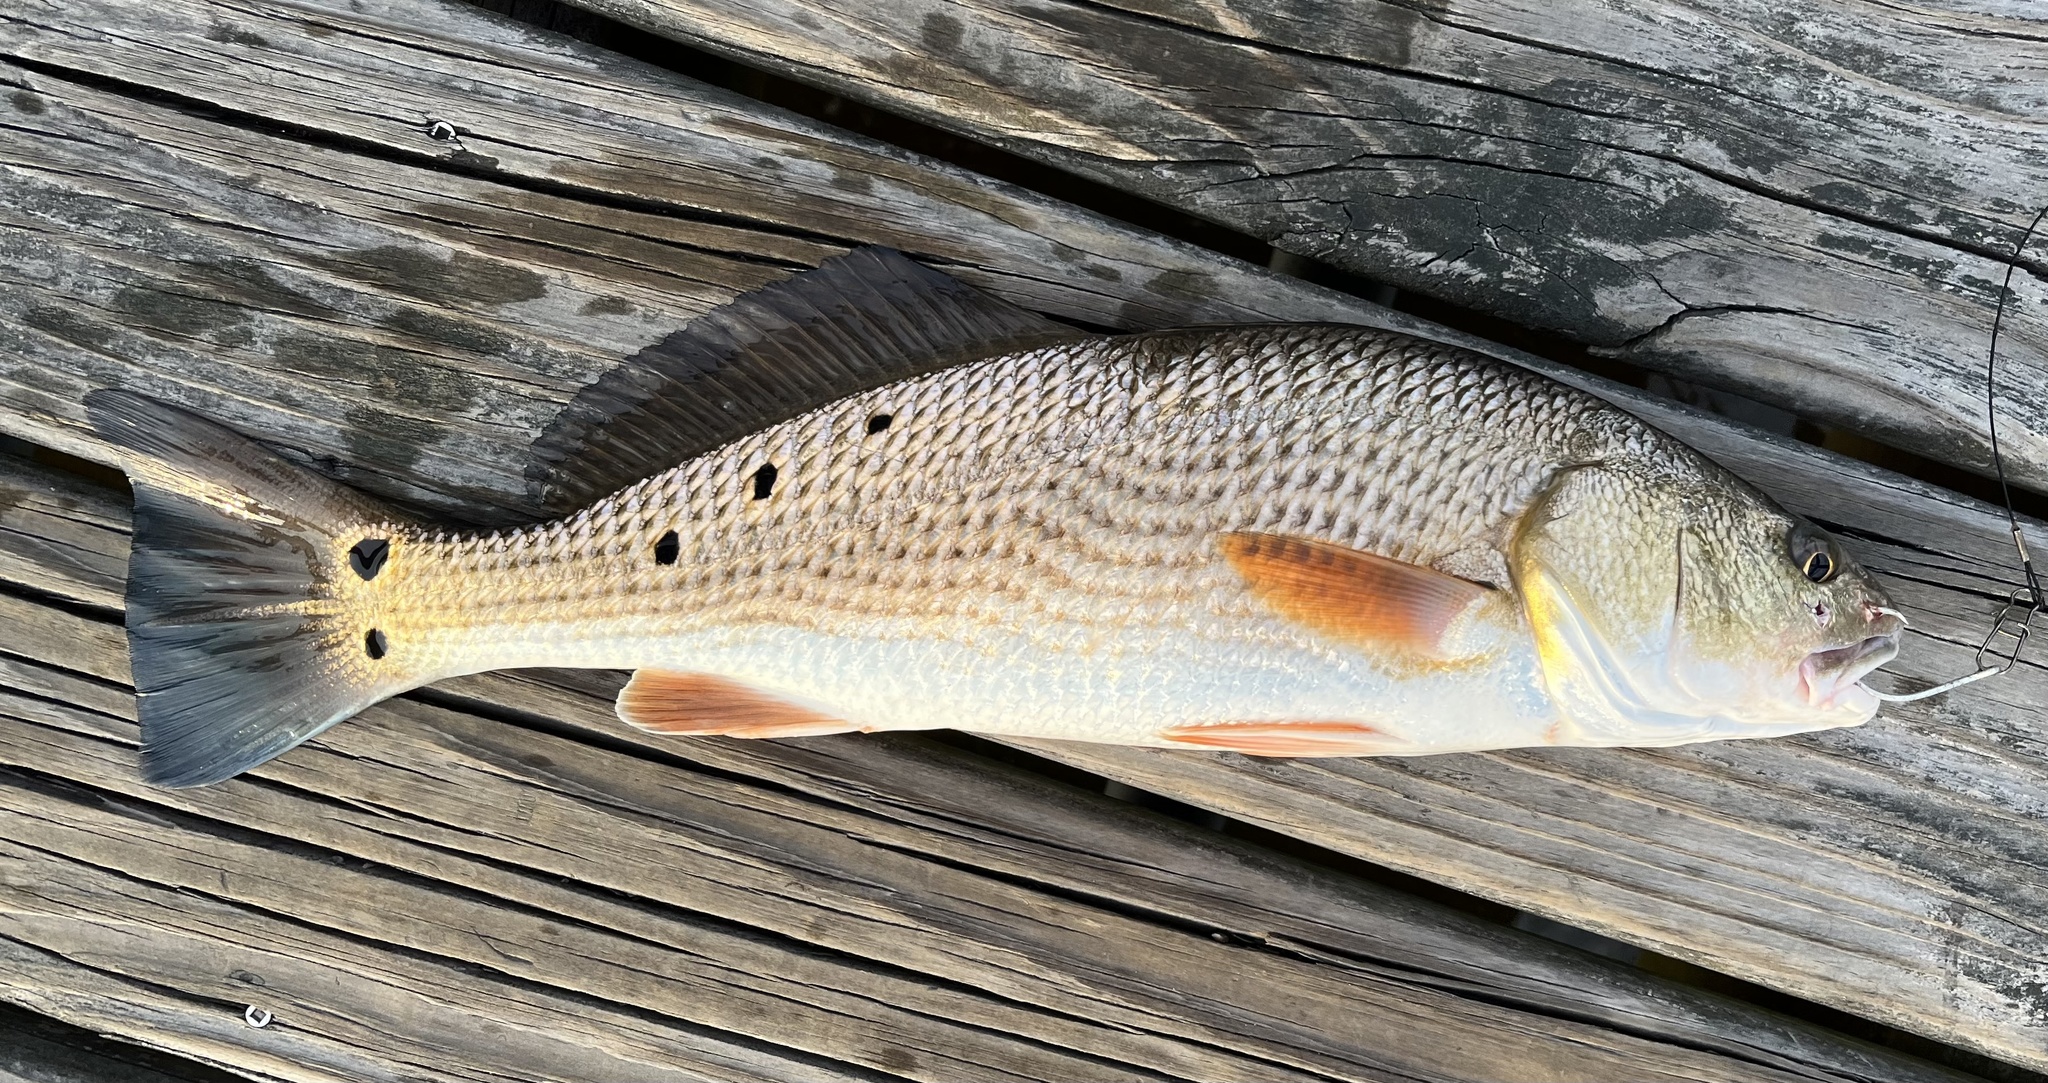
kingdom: Animalia
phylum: Chordata
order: Perciformes
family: Sciaenidae
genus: Sciaenops
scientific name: Sciaenops ocellatus
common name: Red drum
